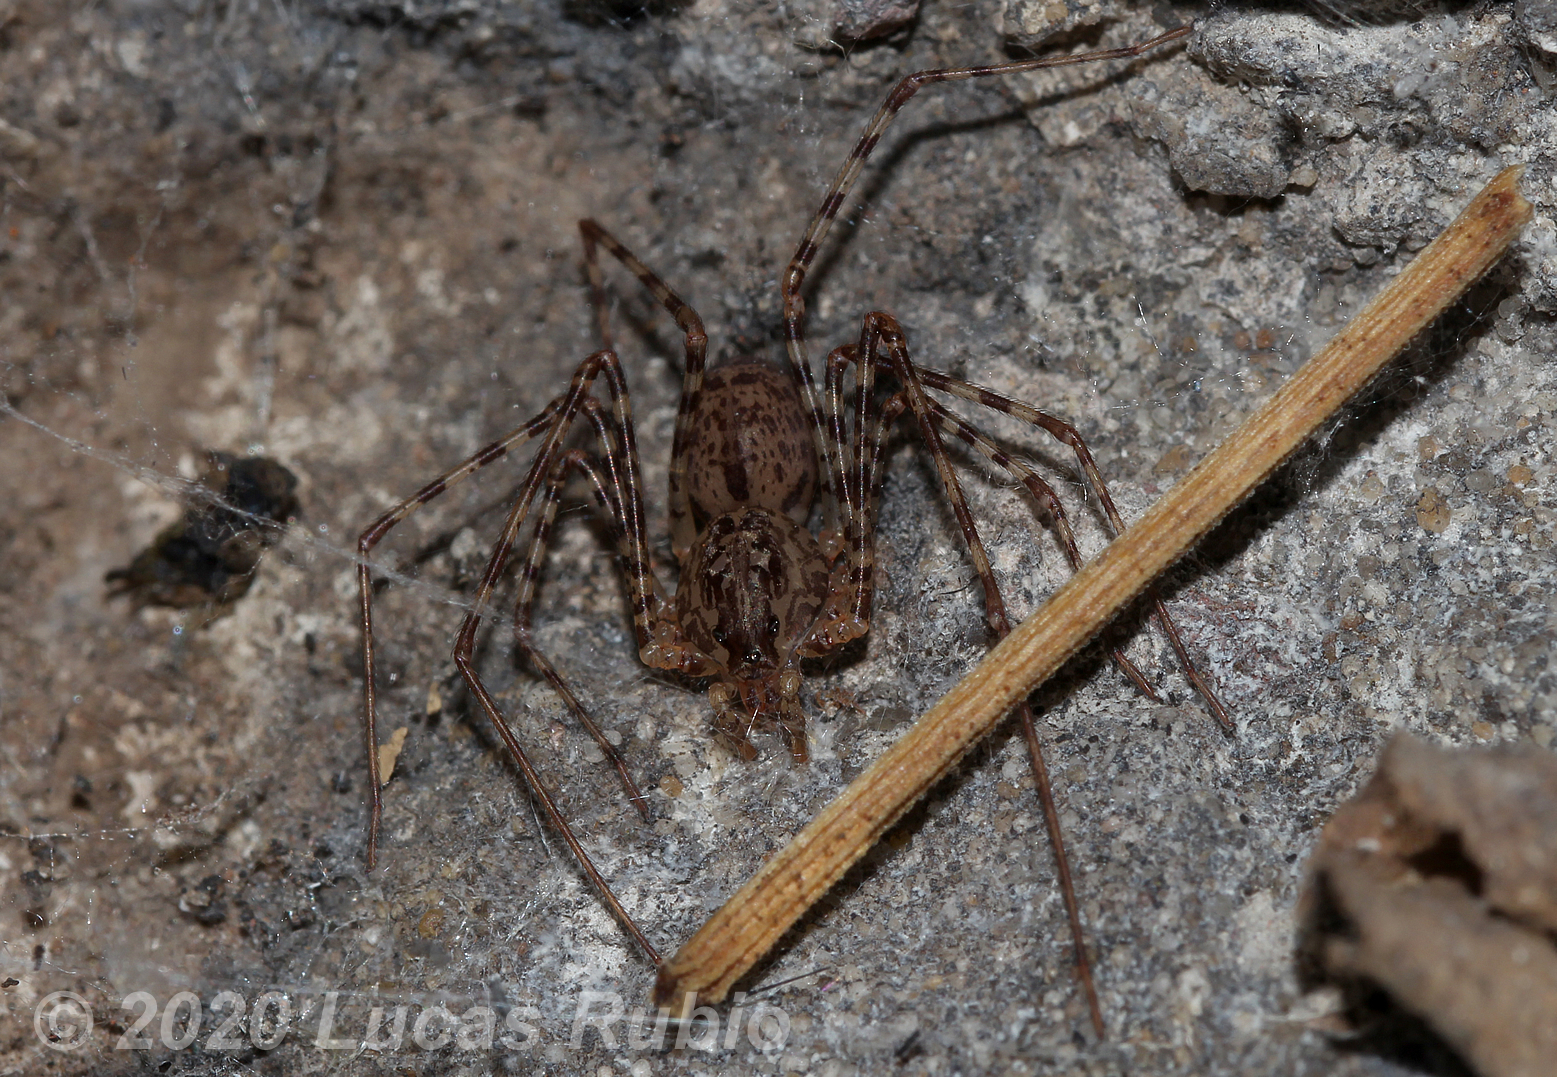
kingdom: Animalia
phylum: Arthropoda
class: Arachnida
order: Araneae
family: Scytodidae
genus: Scytodes
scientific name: Scytodes globula
